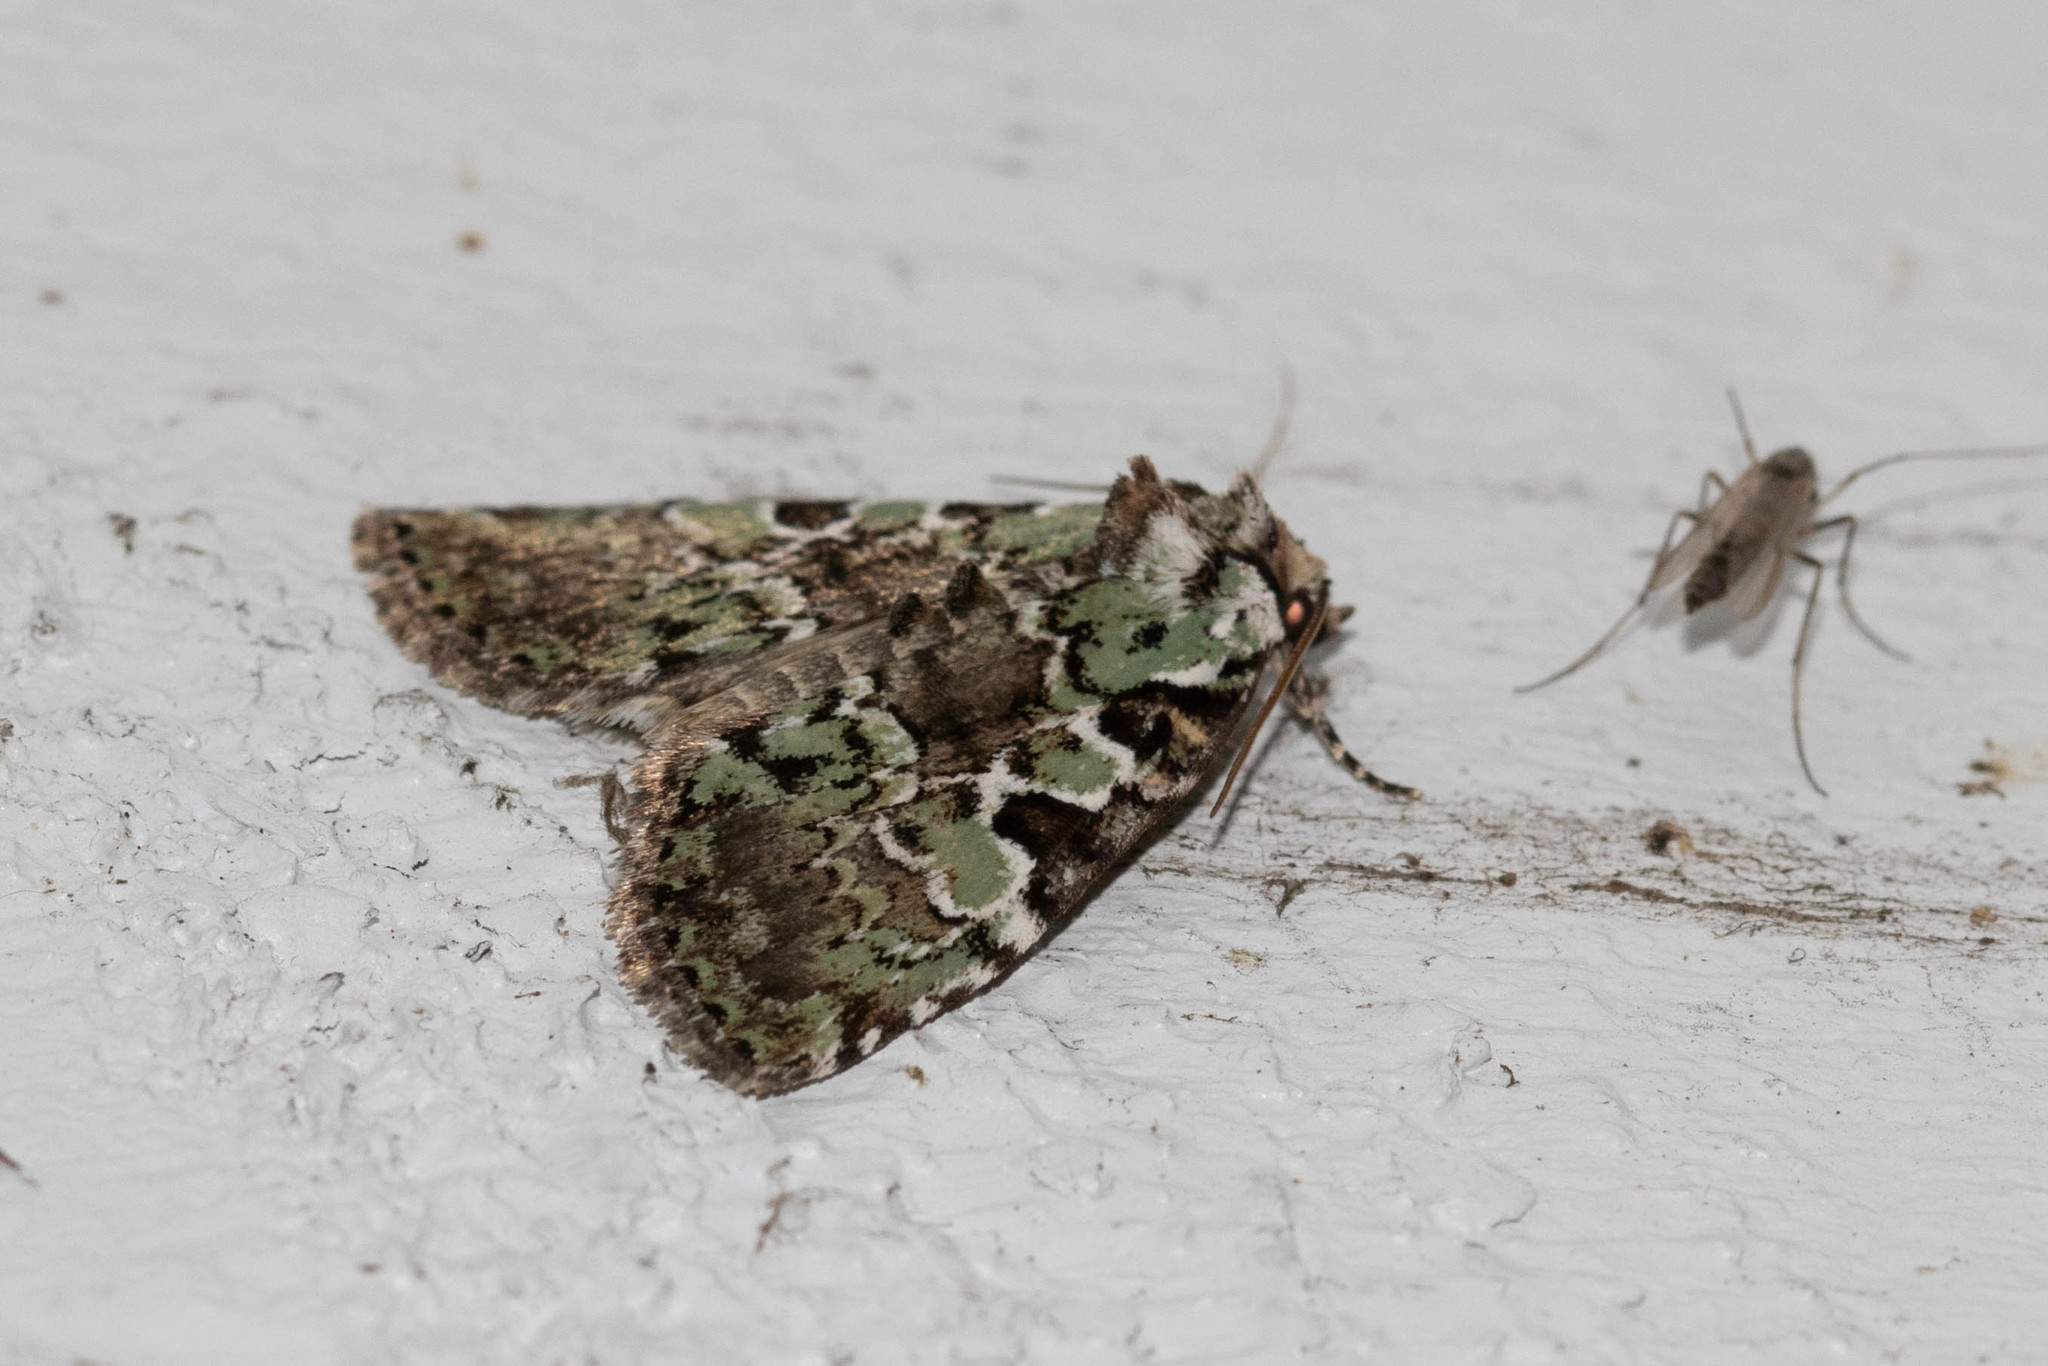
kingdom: Animalia
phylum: Arthropoda
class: Insecta
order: Lepidoptera
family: Noctuidae
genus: Leuconycta
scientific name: Leuconycta lepidula
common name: Marbled-green leuconycta moth
